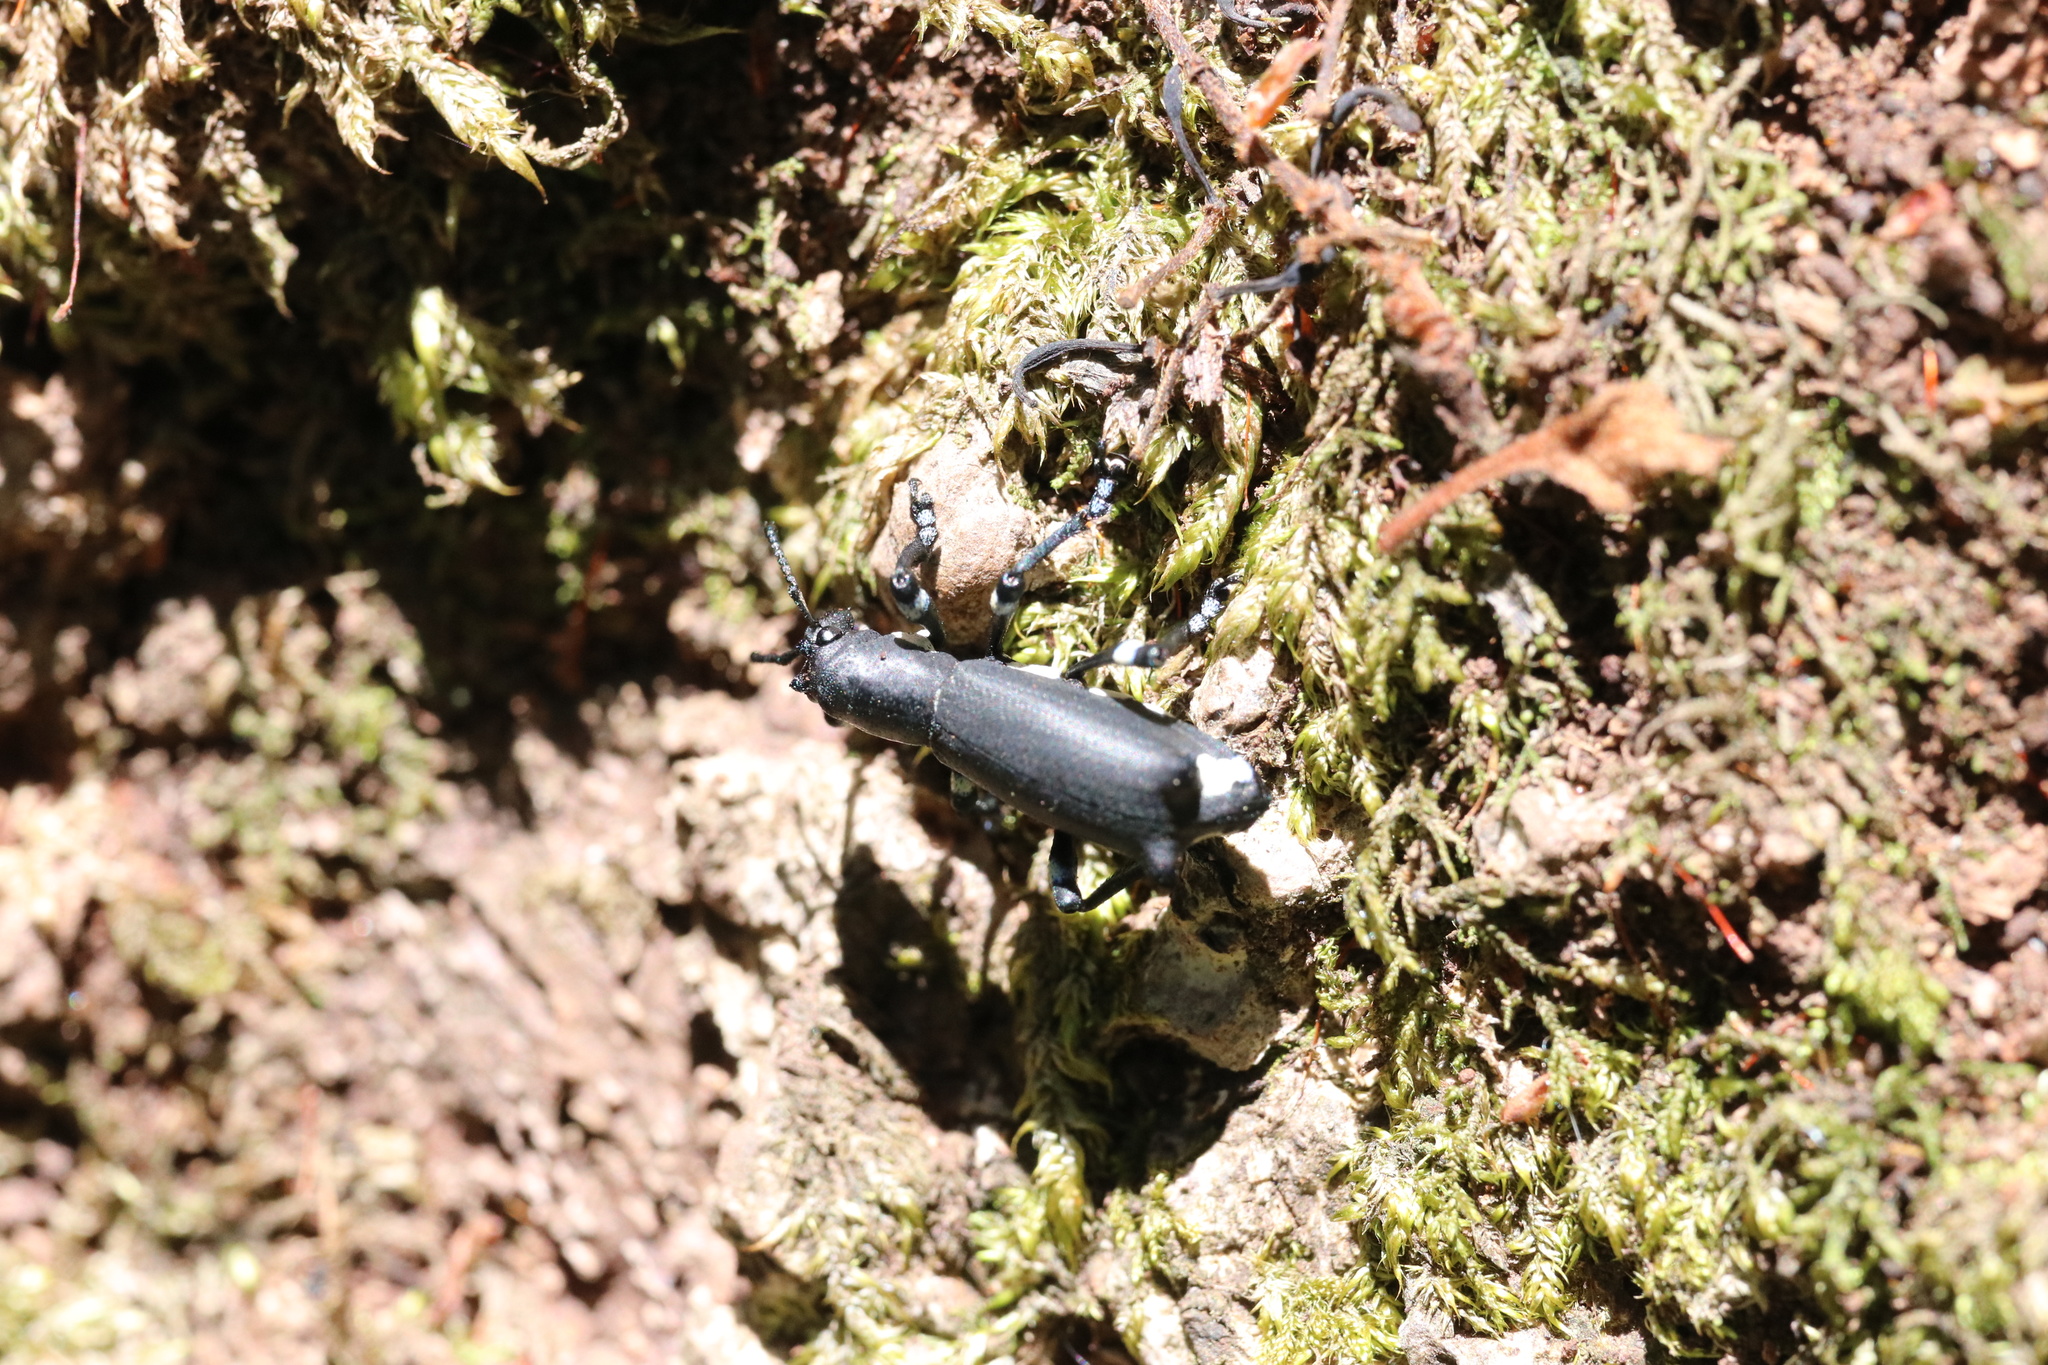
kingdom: Animalia
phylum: Arthropoda
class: Insecta
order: Coleoptera
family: Curculionidae
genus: Aegorhinus
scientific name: Aegorhinus
